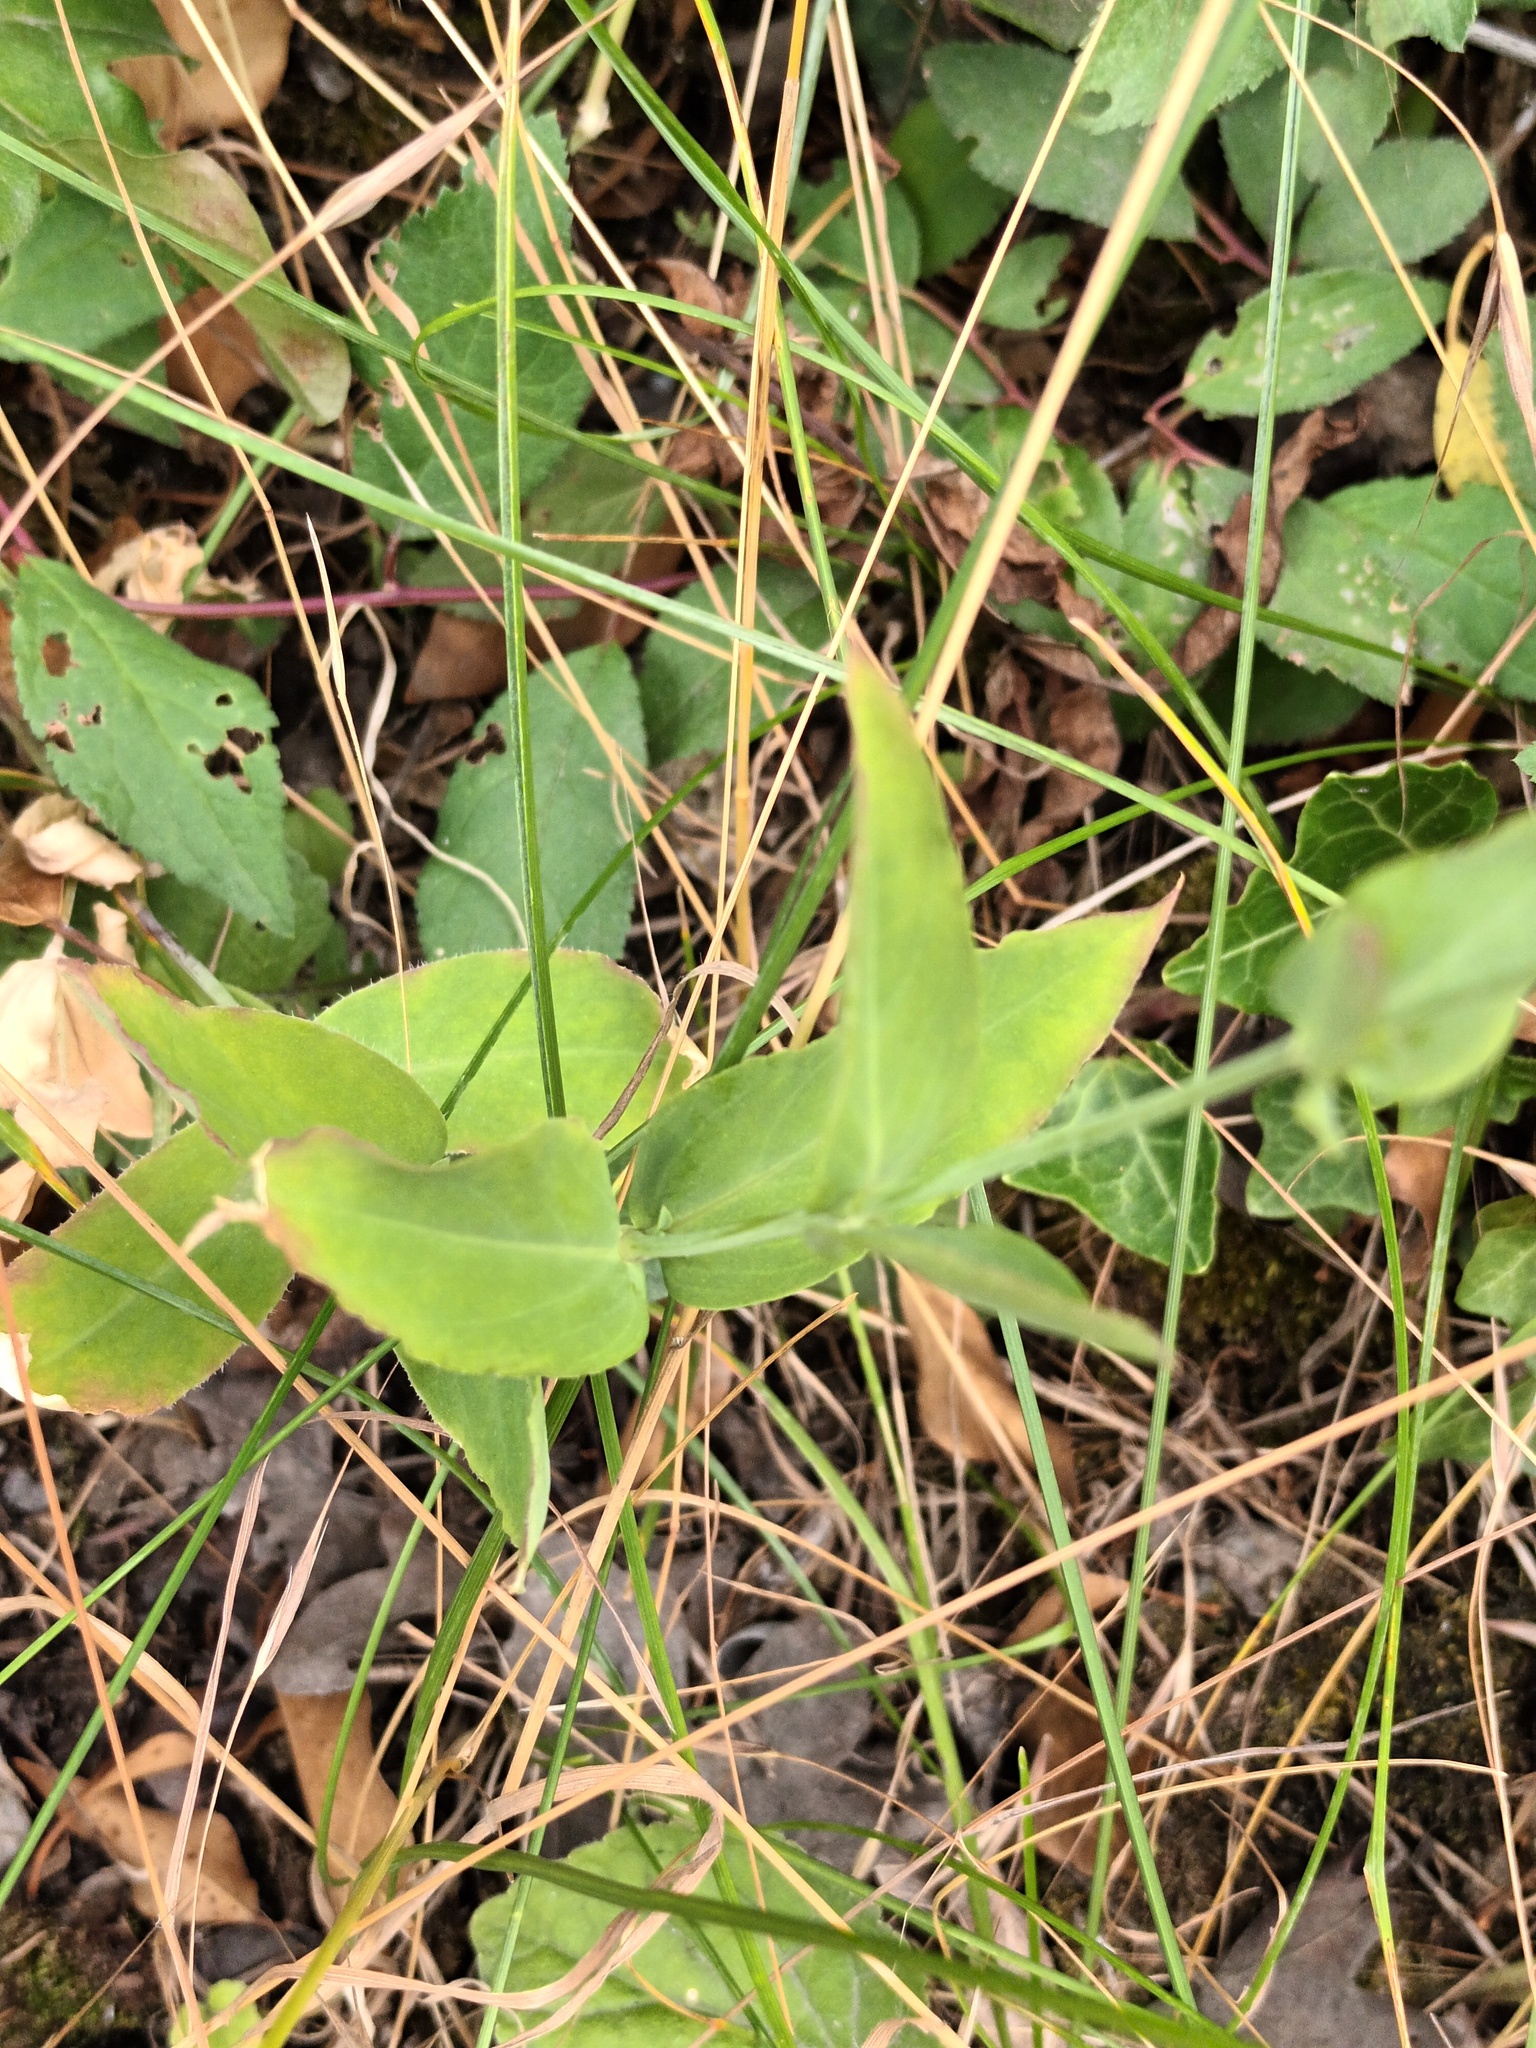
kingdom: Plantae
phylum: Tracheophyta
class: Magnoliopsida
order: Caryophyllales
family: Caryophyllaceae
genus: Silene
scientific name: Silene vulgaris
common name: Bladder campion
